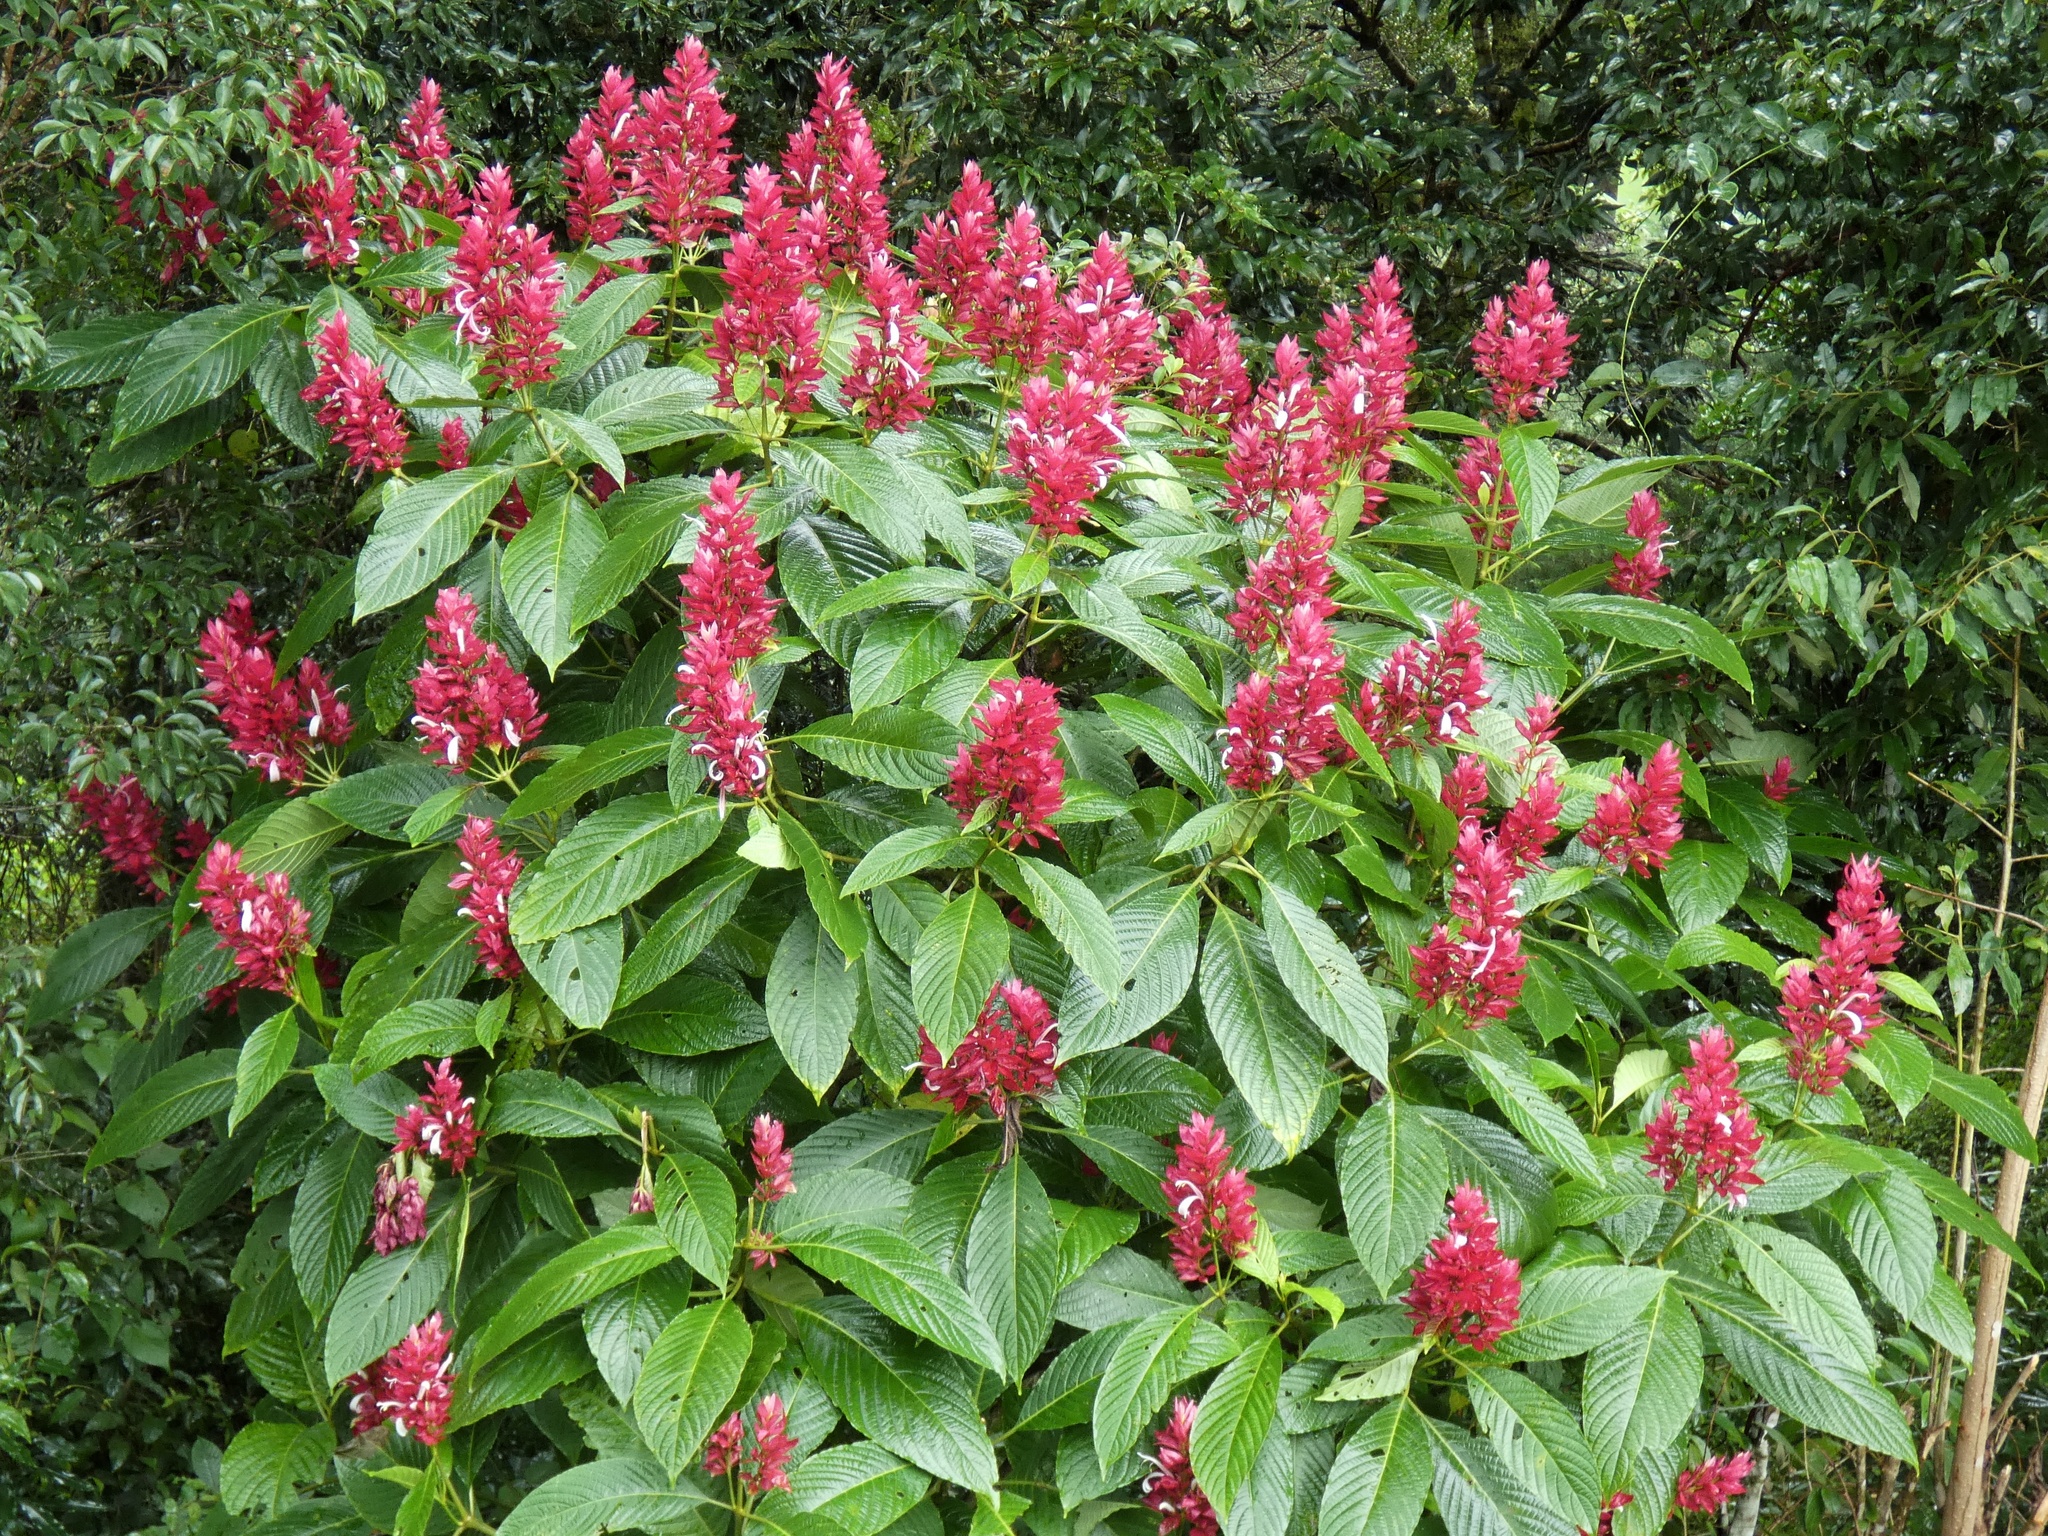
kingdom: Plantae
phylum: Tracheophyta
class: Magnoliopsida
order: Lamiales
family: Acanthaceae
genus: Megaskepasma
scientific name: Megaskepasma erythrochlamys
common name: Brazilian red-cloak
